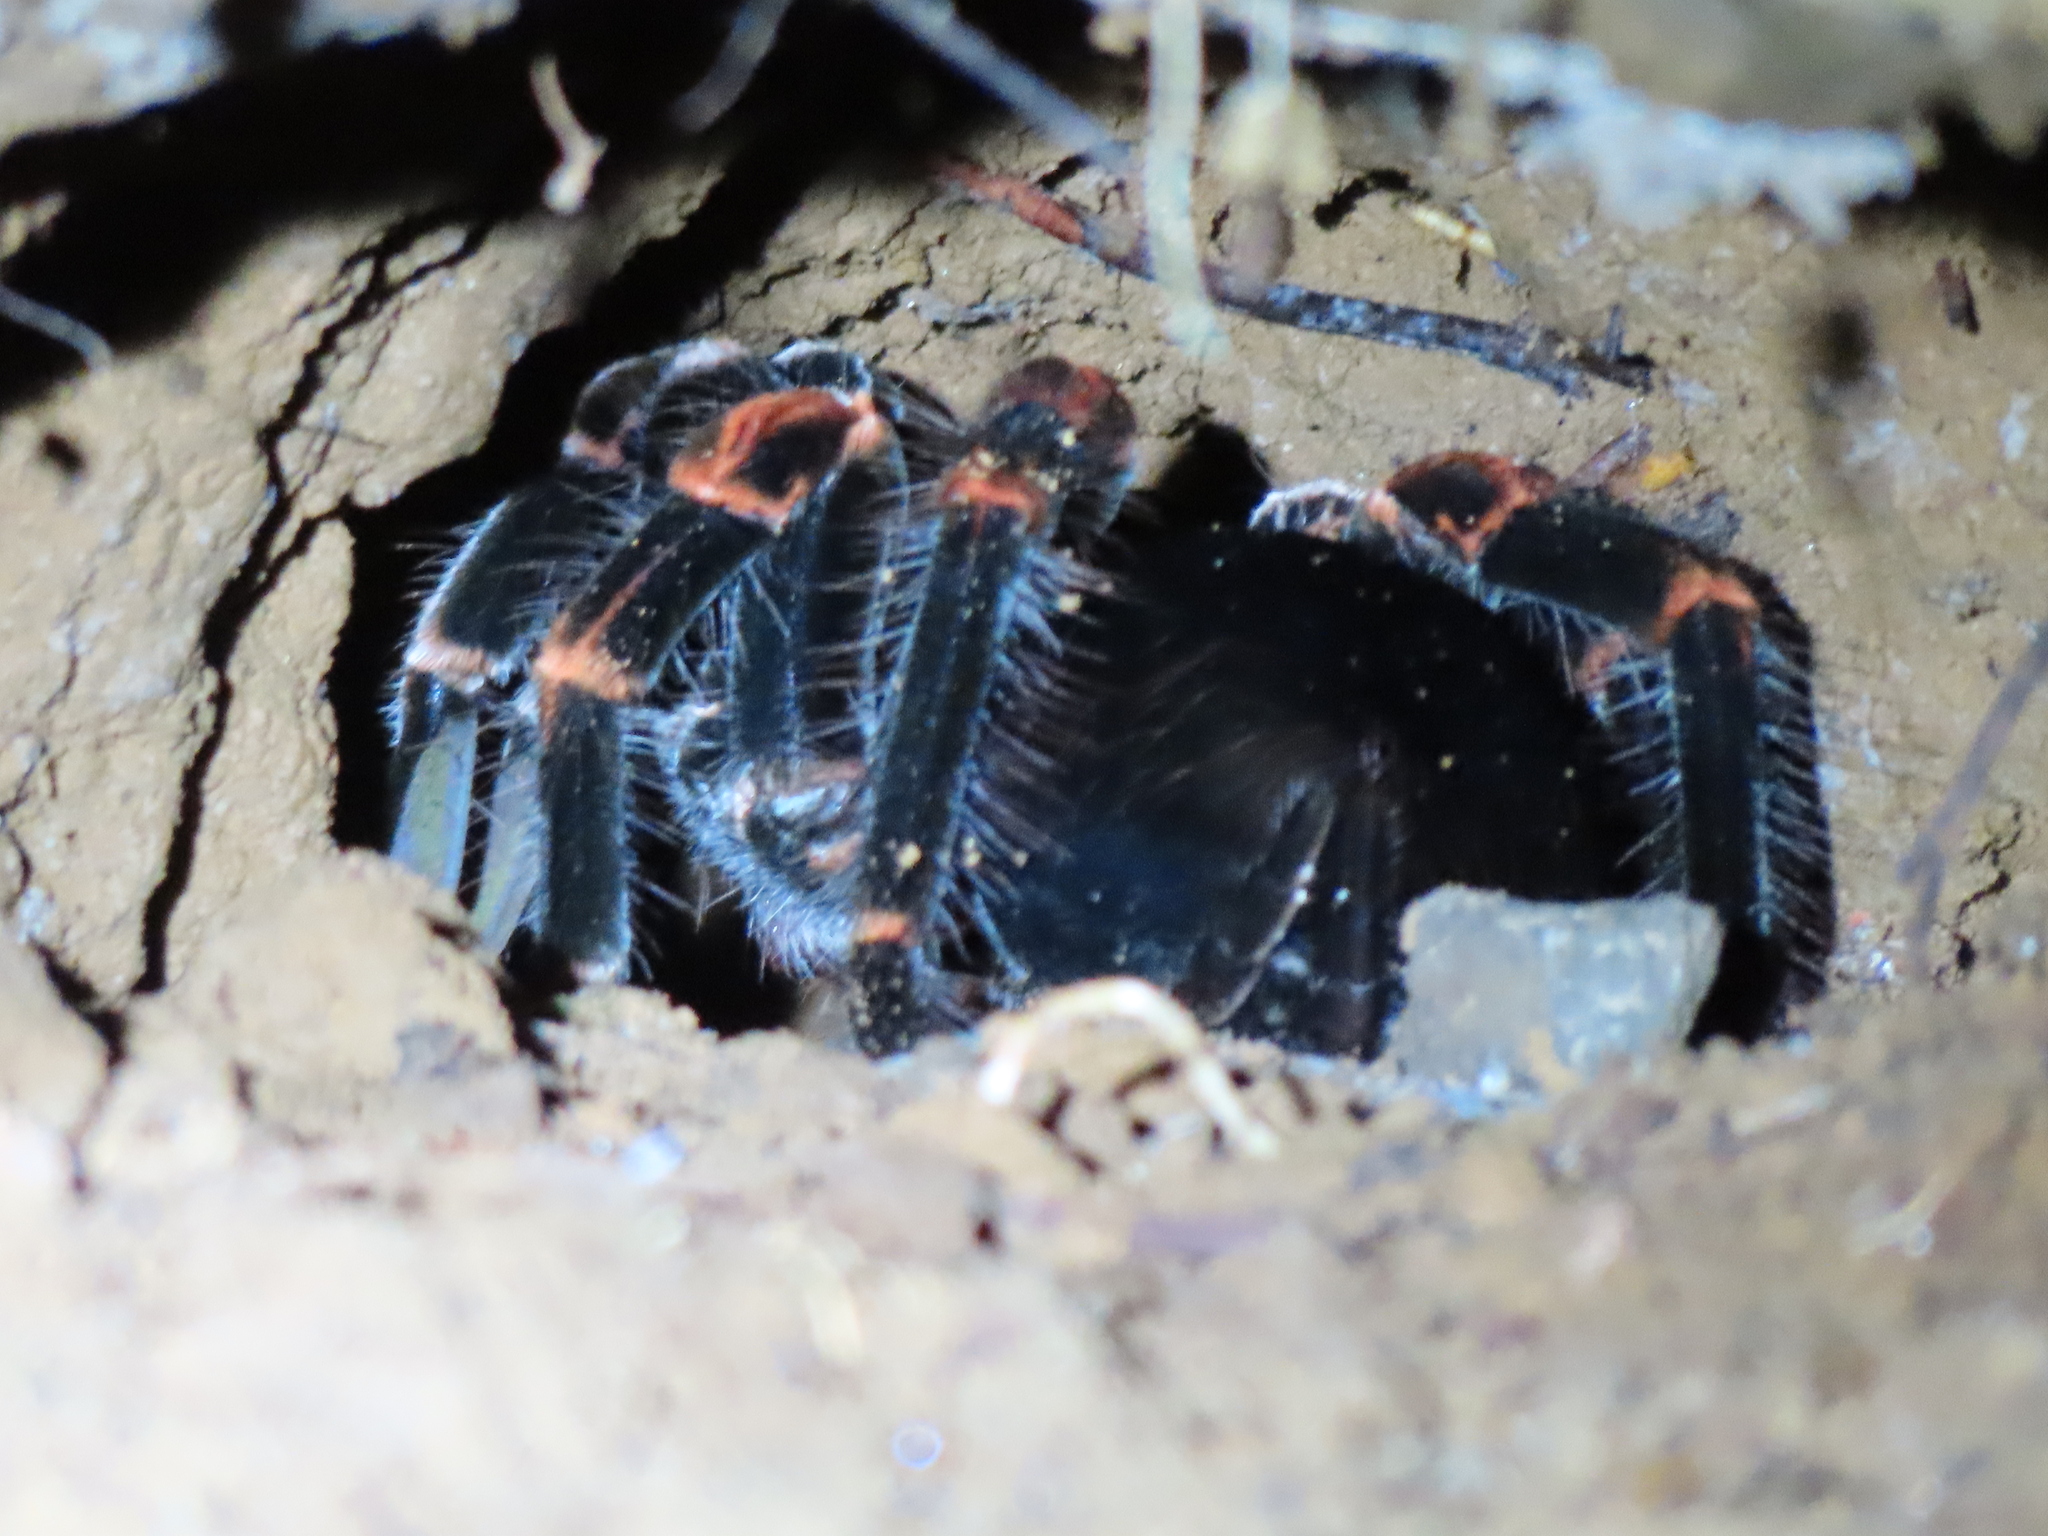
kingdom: Animalia
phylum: Arthropoda
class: Arachnida
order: Araneae
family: Theraphosidae
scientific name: Theraphosidae
